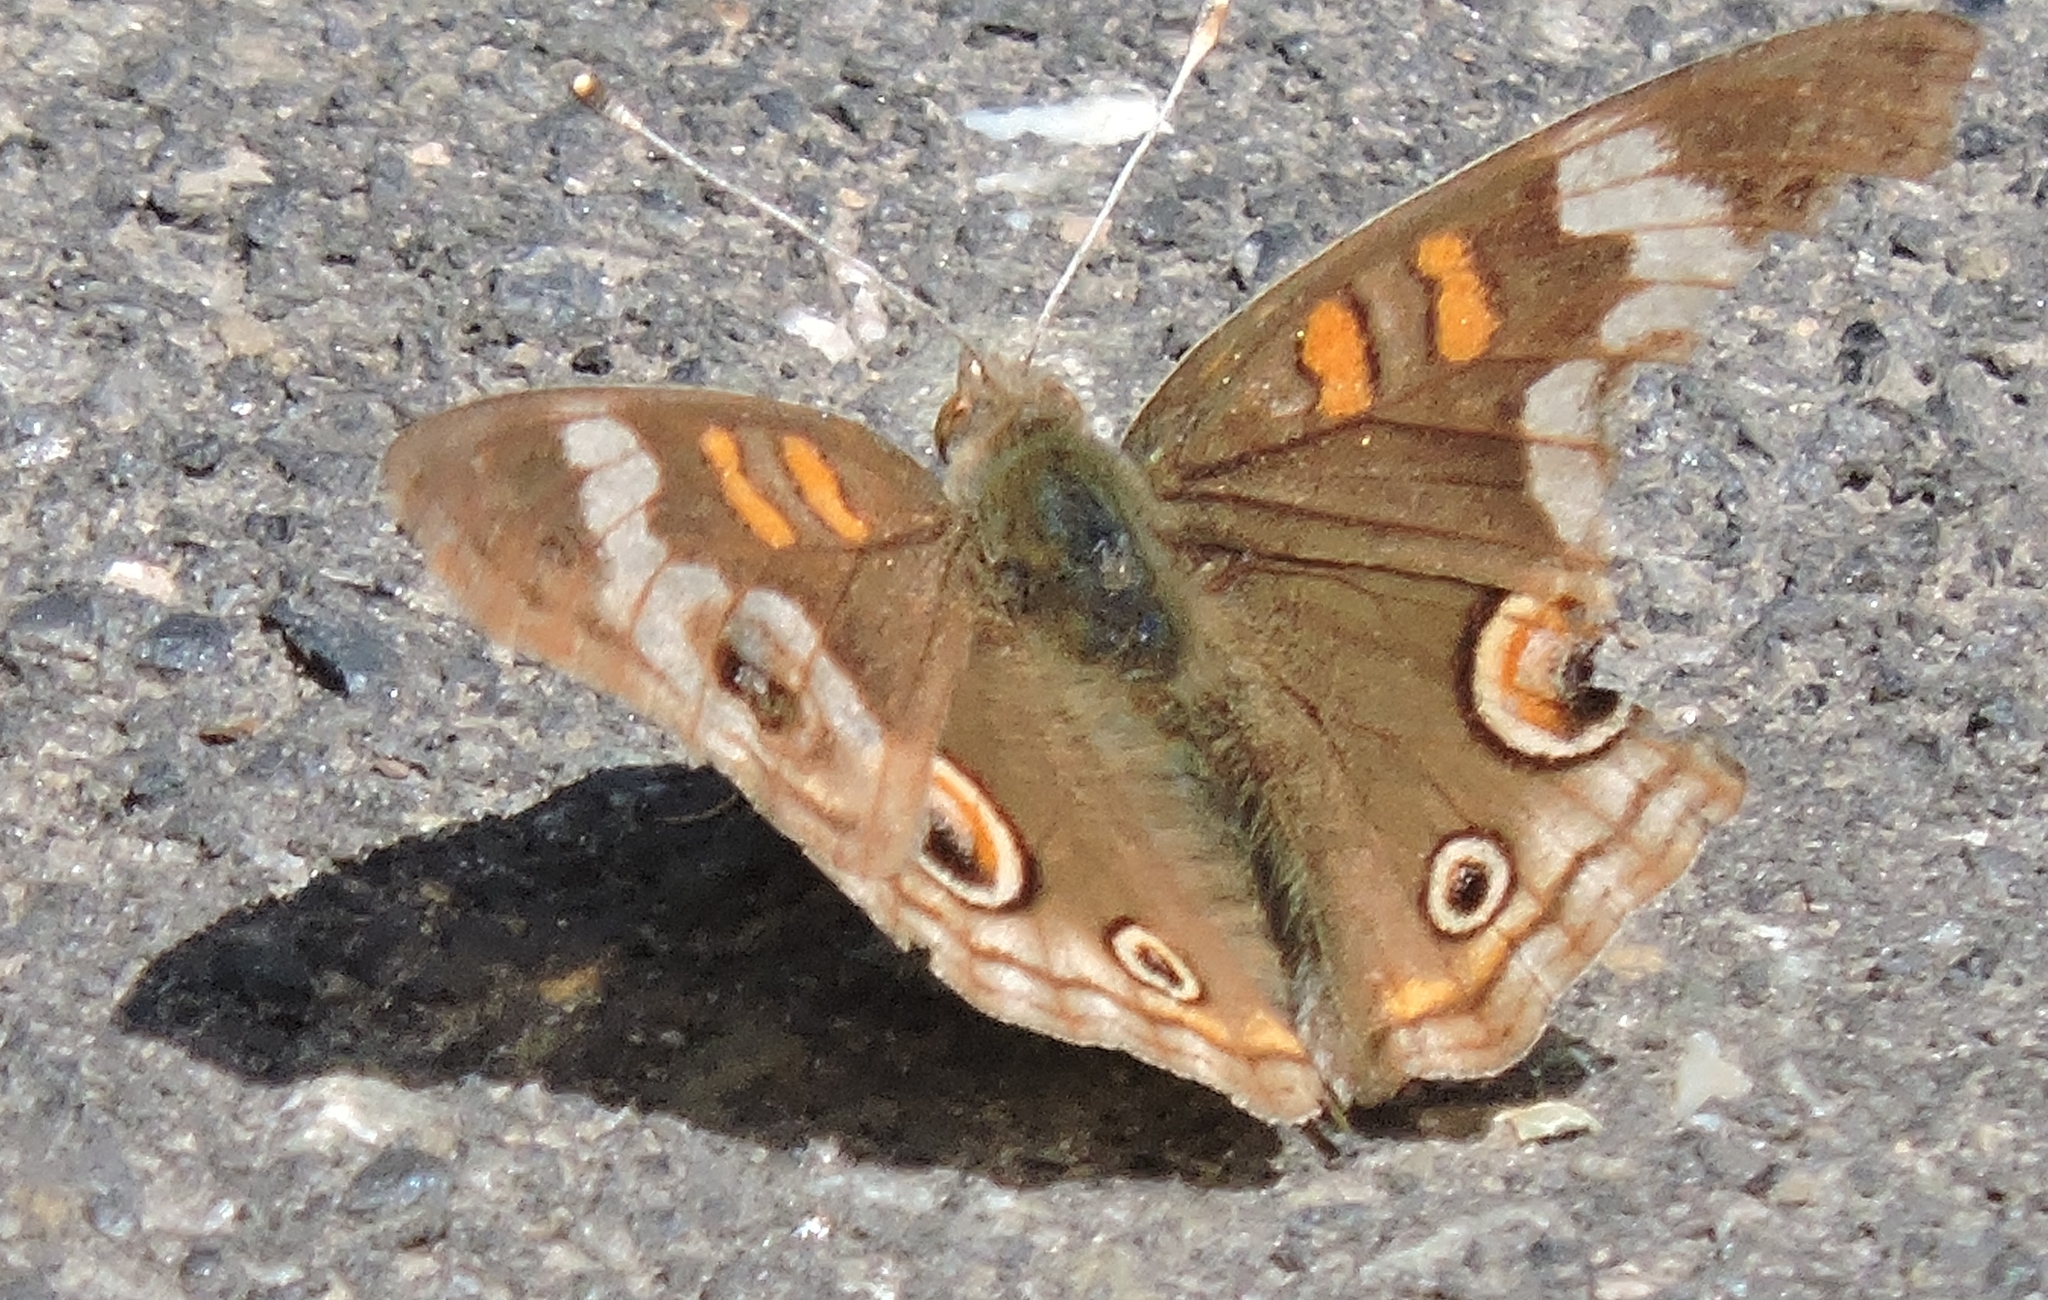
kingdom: Animalia
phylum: Arthropoda
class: Insecta
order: Lepidoptera
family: Nymphalidae
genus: Junonia
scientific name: Junonia grisea
